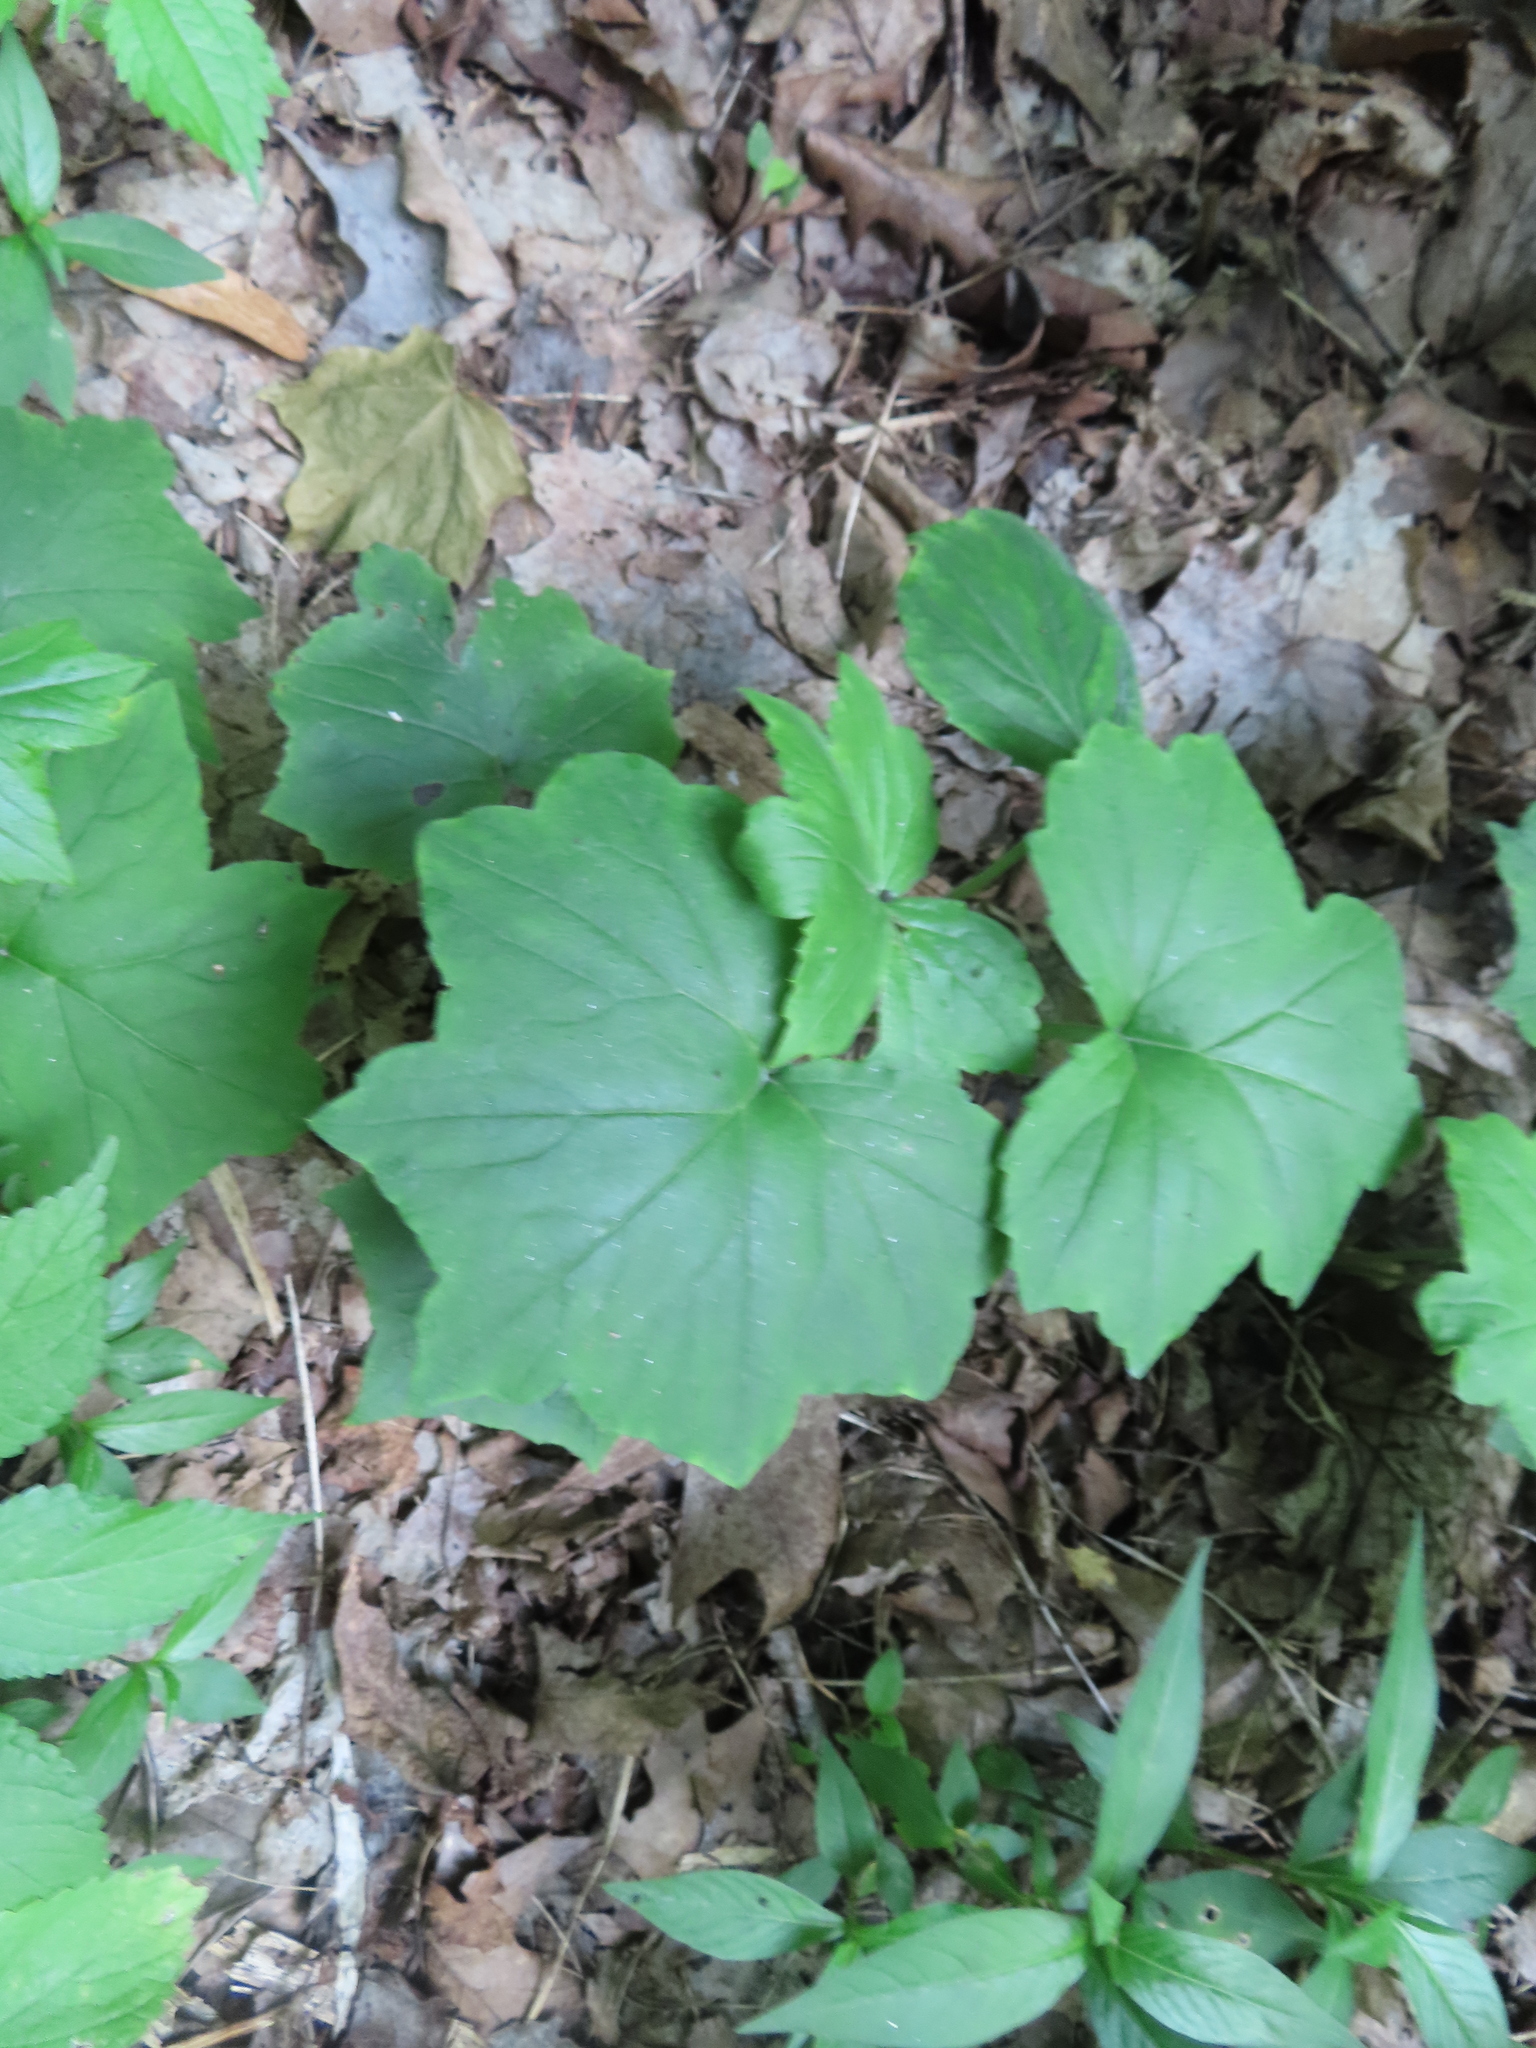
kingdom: Plantae
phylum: Tracheophyta
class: Magnoliopsida
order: Boraginales
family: Hydrophyllaceae
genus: Hydrophyllum
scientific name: Hydrophyllum appendiculatum
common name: Appendaged waterleaf
